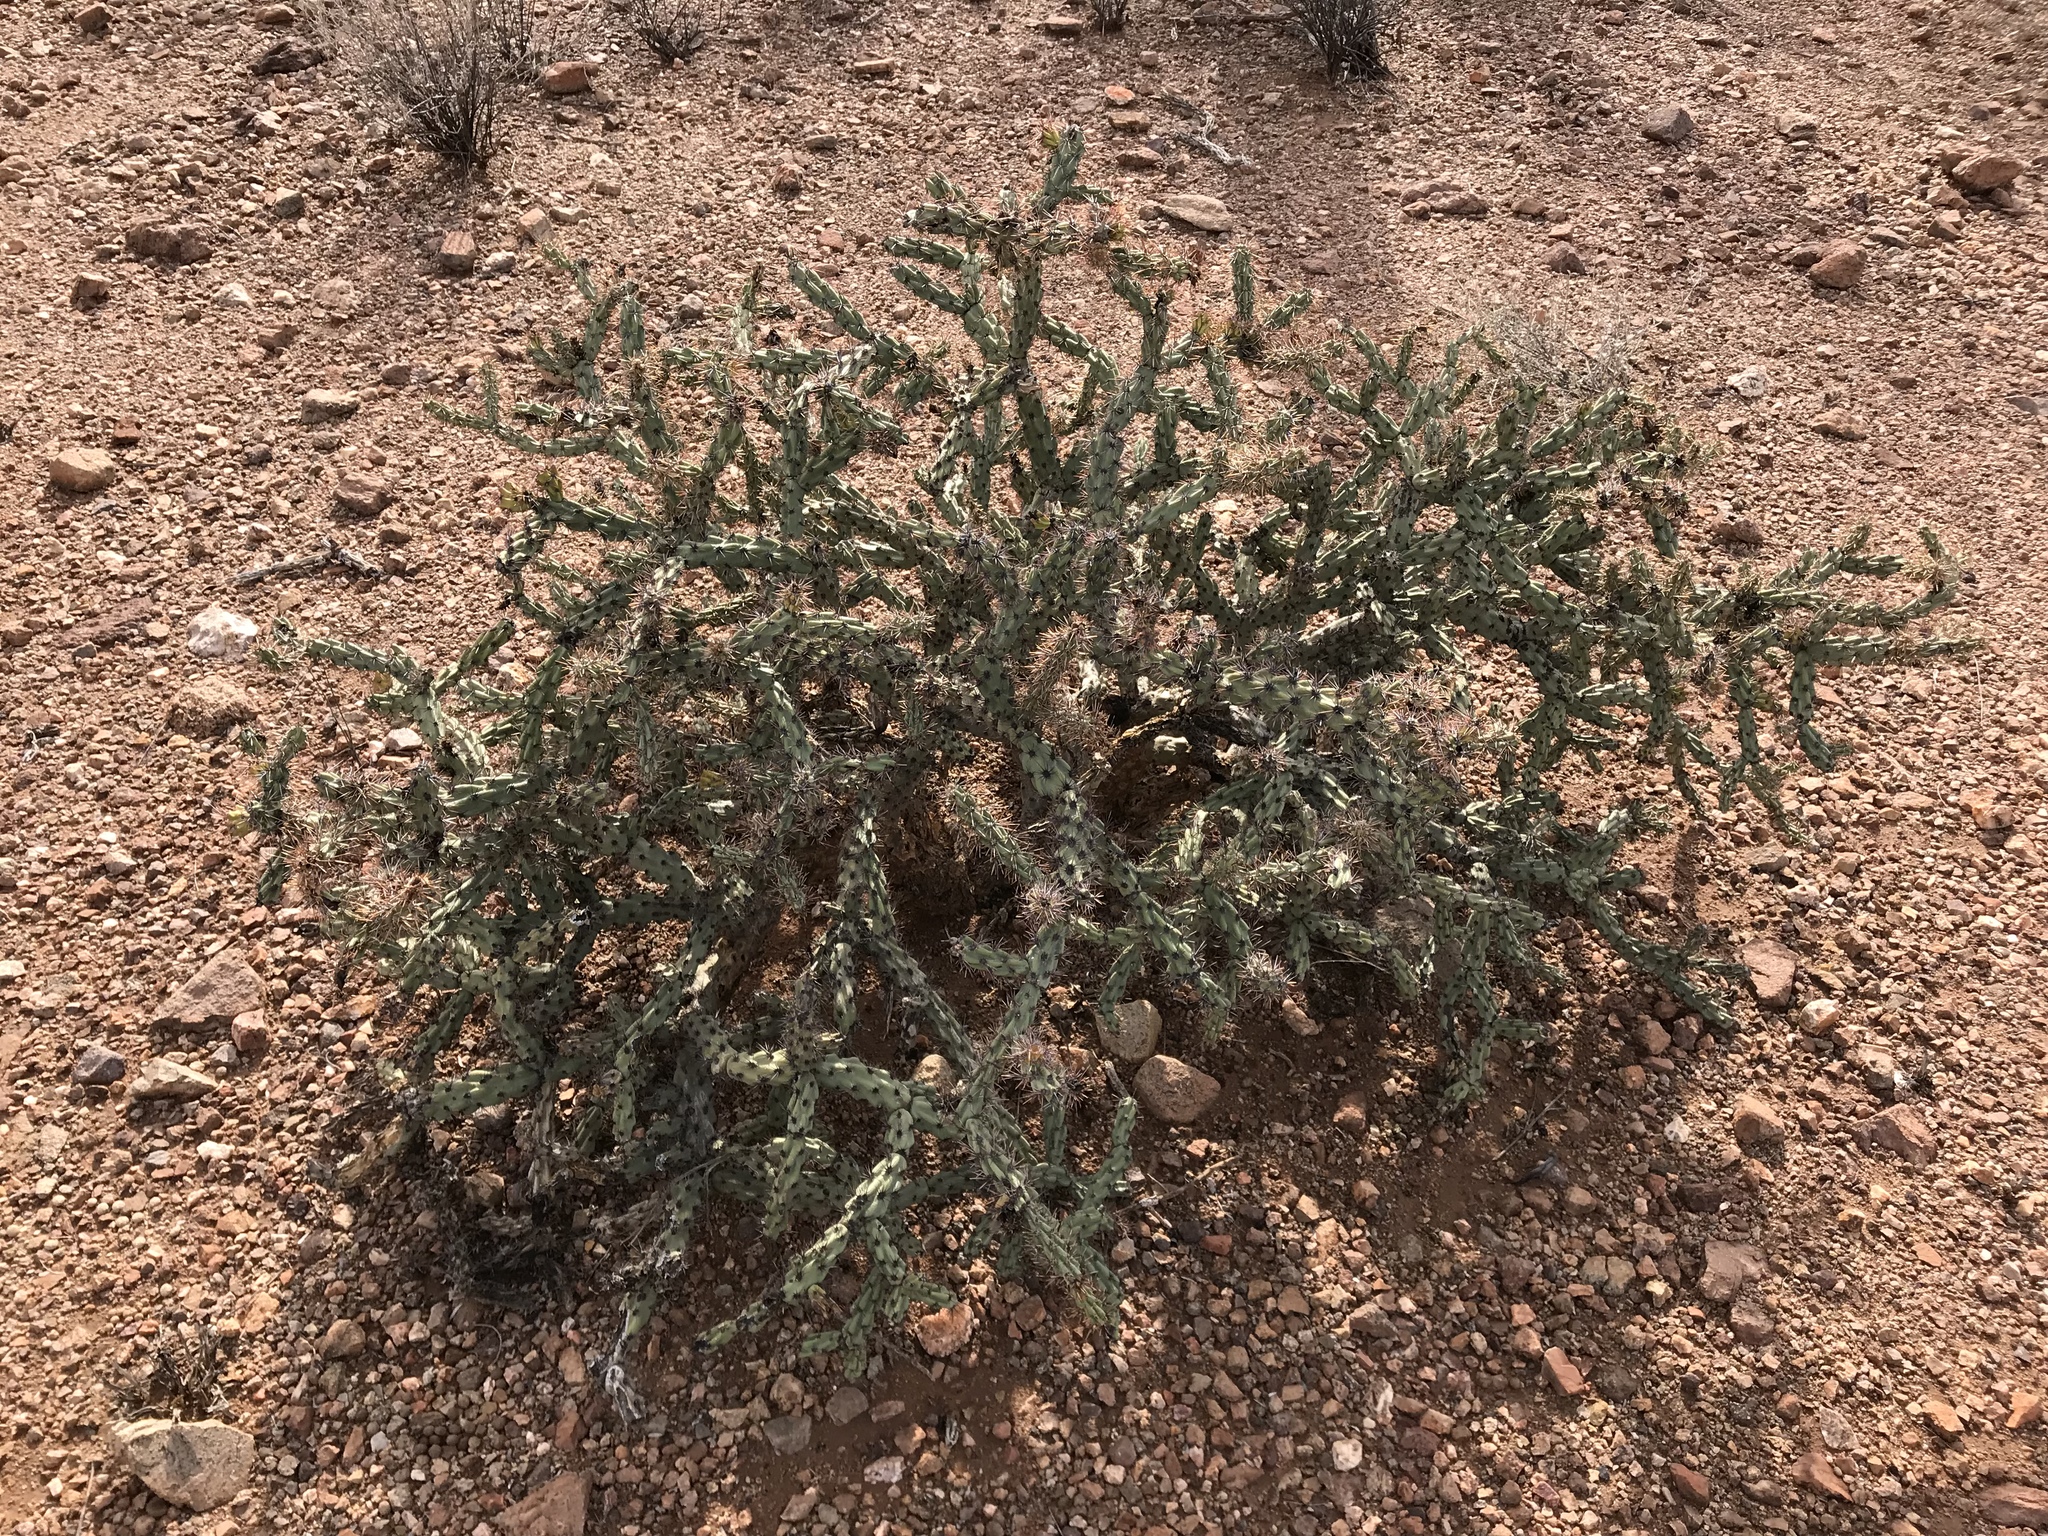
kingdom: Plantae
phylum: Tracheophyta
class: Magnoliopsida
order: Caryophyllales
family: Cactaceae
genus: Cylindropuntia
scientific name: Cylindropuntia thurberi
